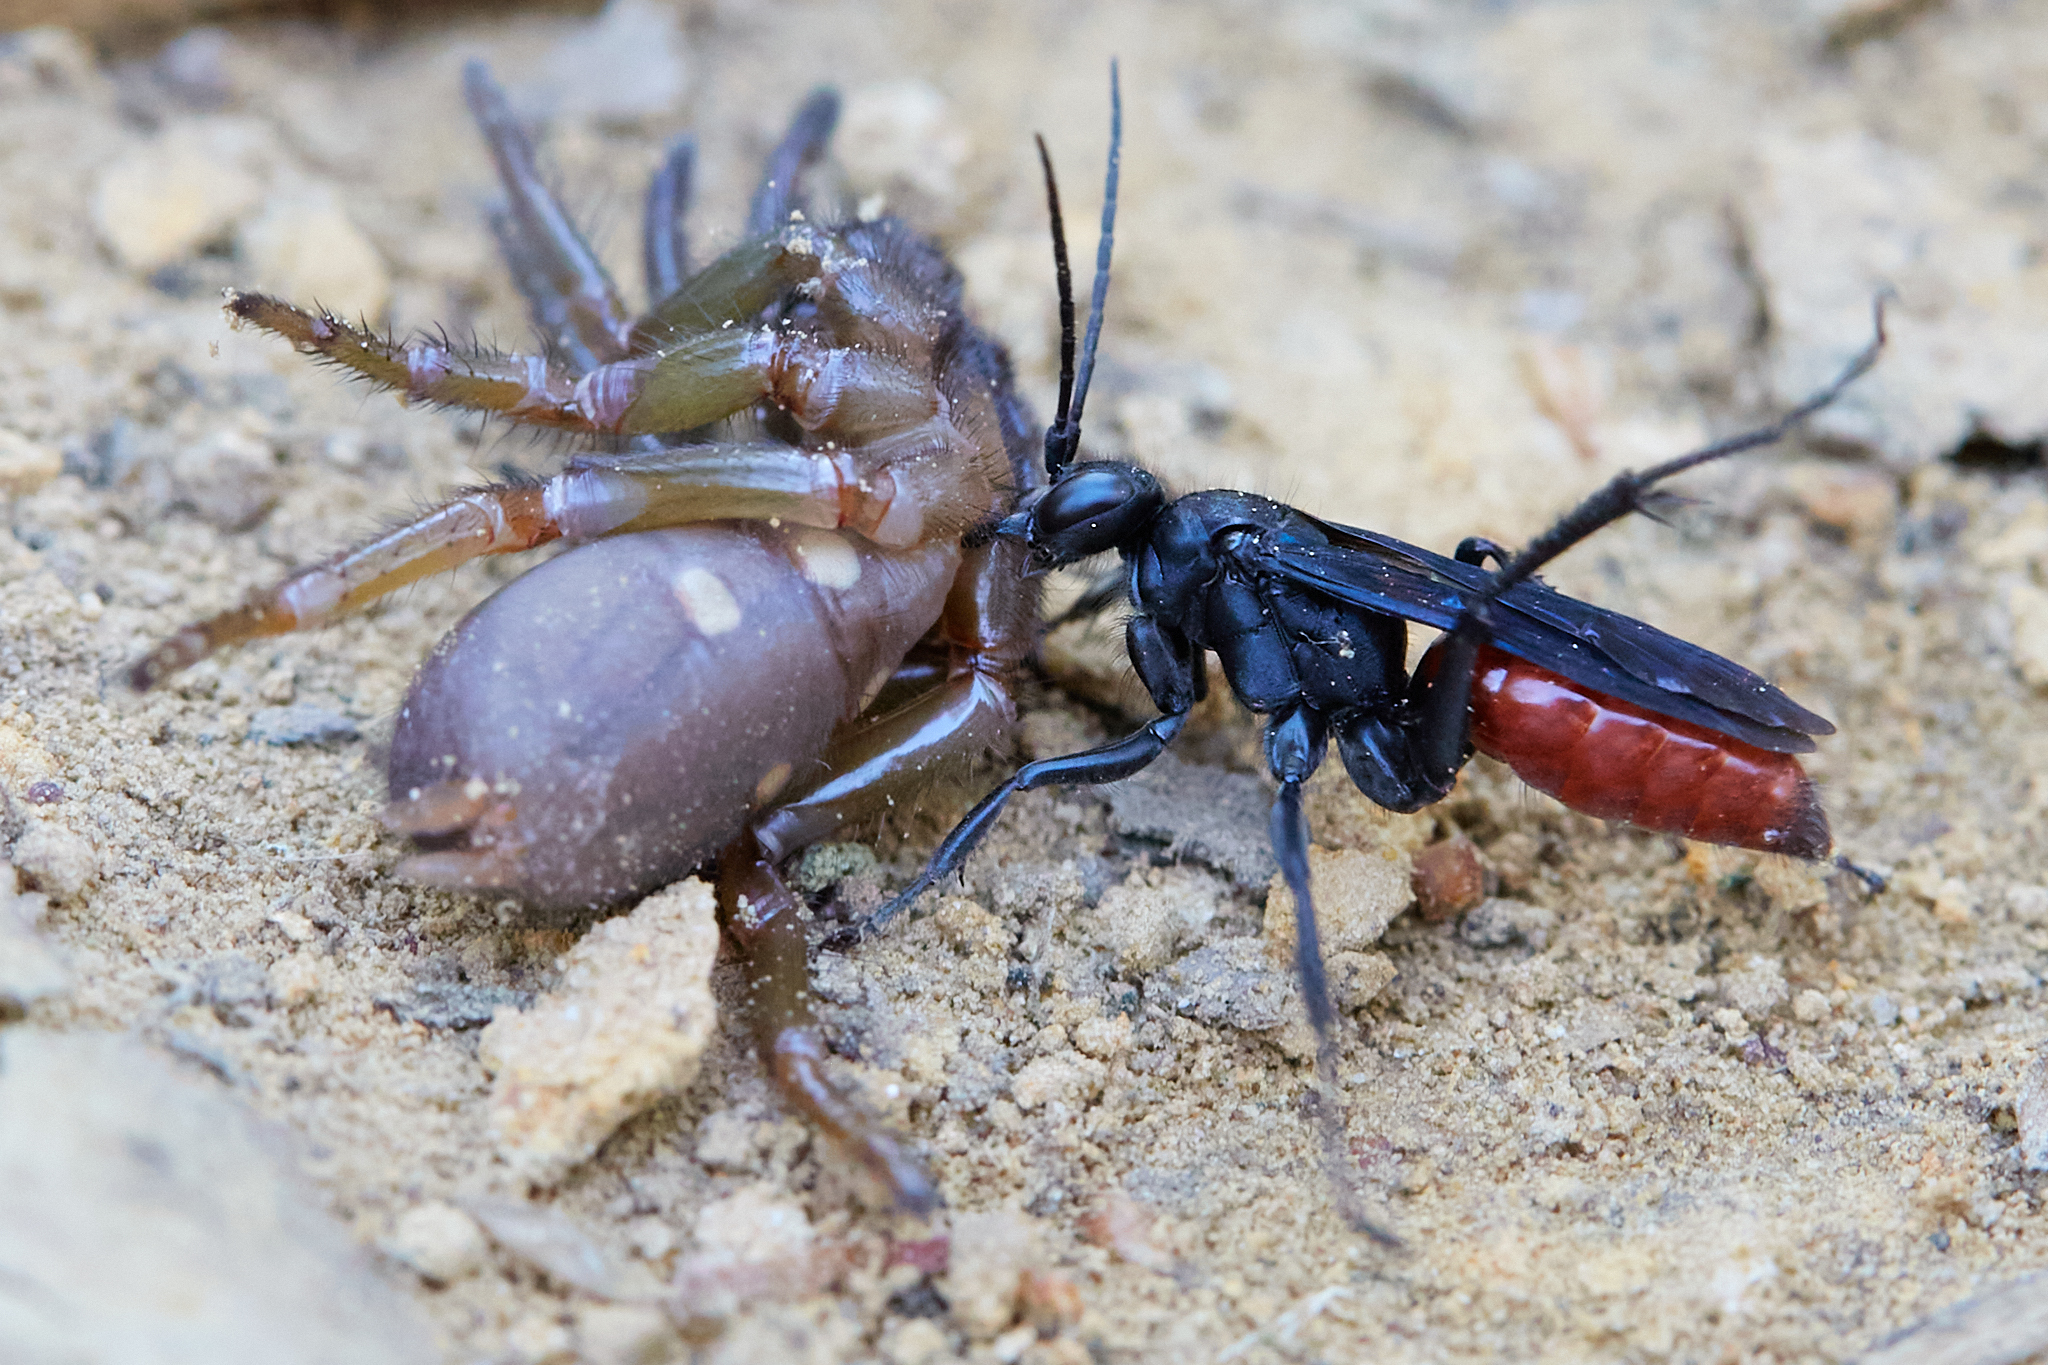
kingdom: Animalia
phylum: Arthropoda
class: Insecta
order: Hymenoptera
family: Pompilidae
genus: Priocnemis
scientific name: Priocnemis oregona
